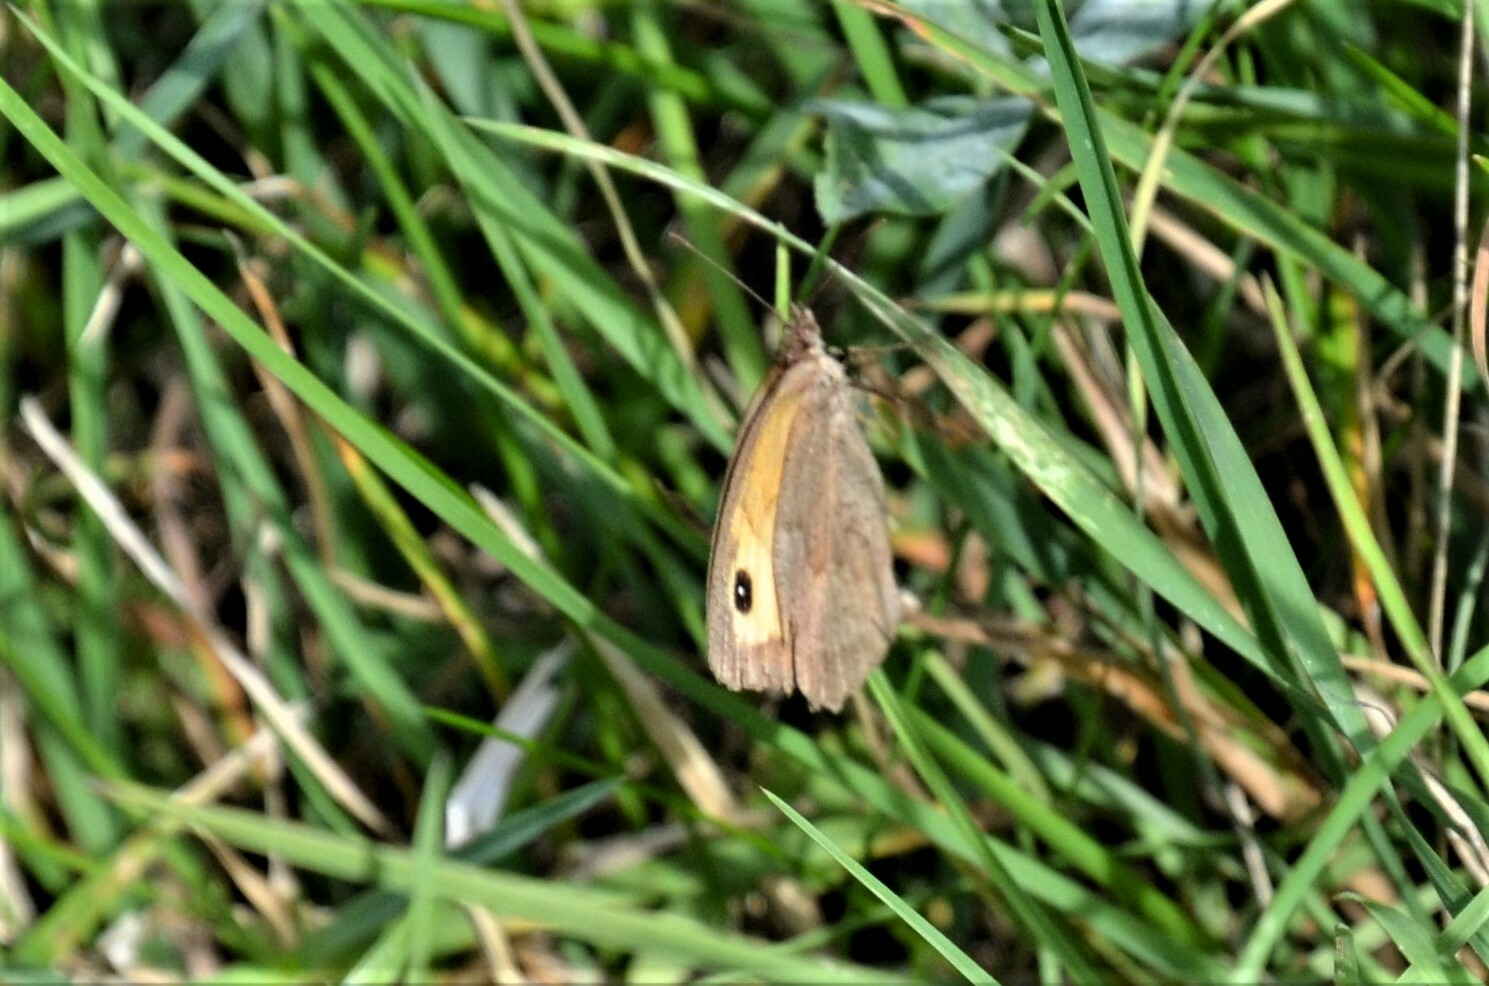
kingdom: Animalia
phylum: Arthropoda
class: Insecta
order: Lepidoptera
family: Nymphalidae
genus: Maniola
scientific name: Maniola jurtina
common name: Meadow brown
